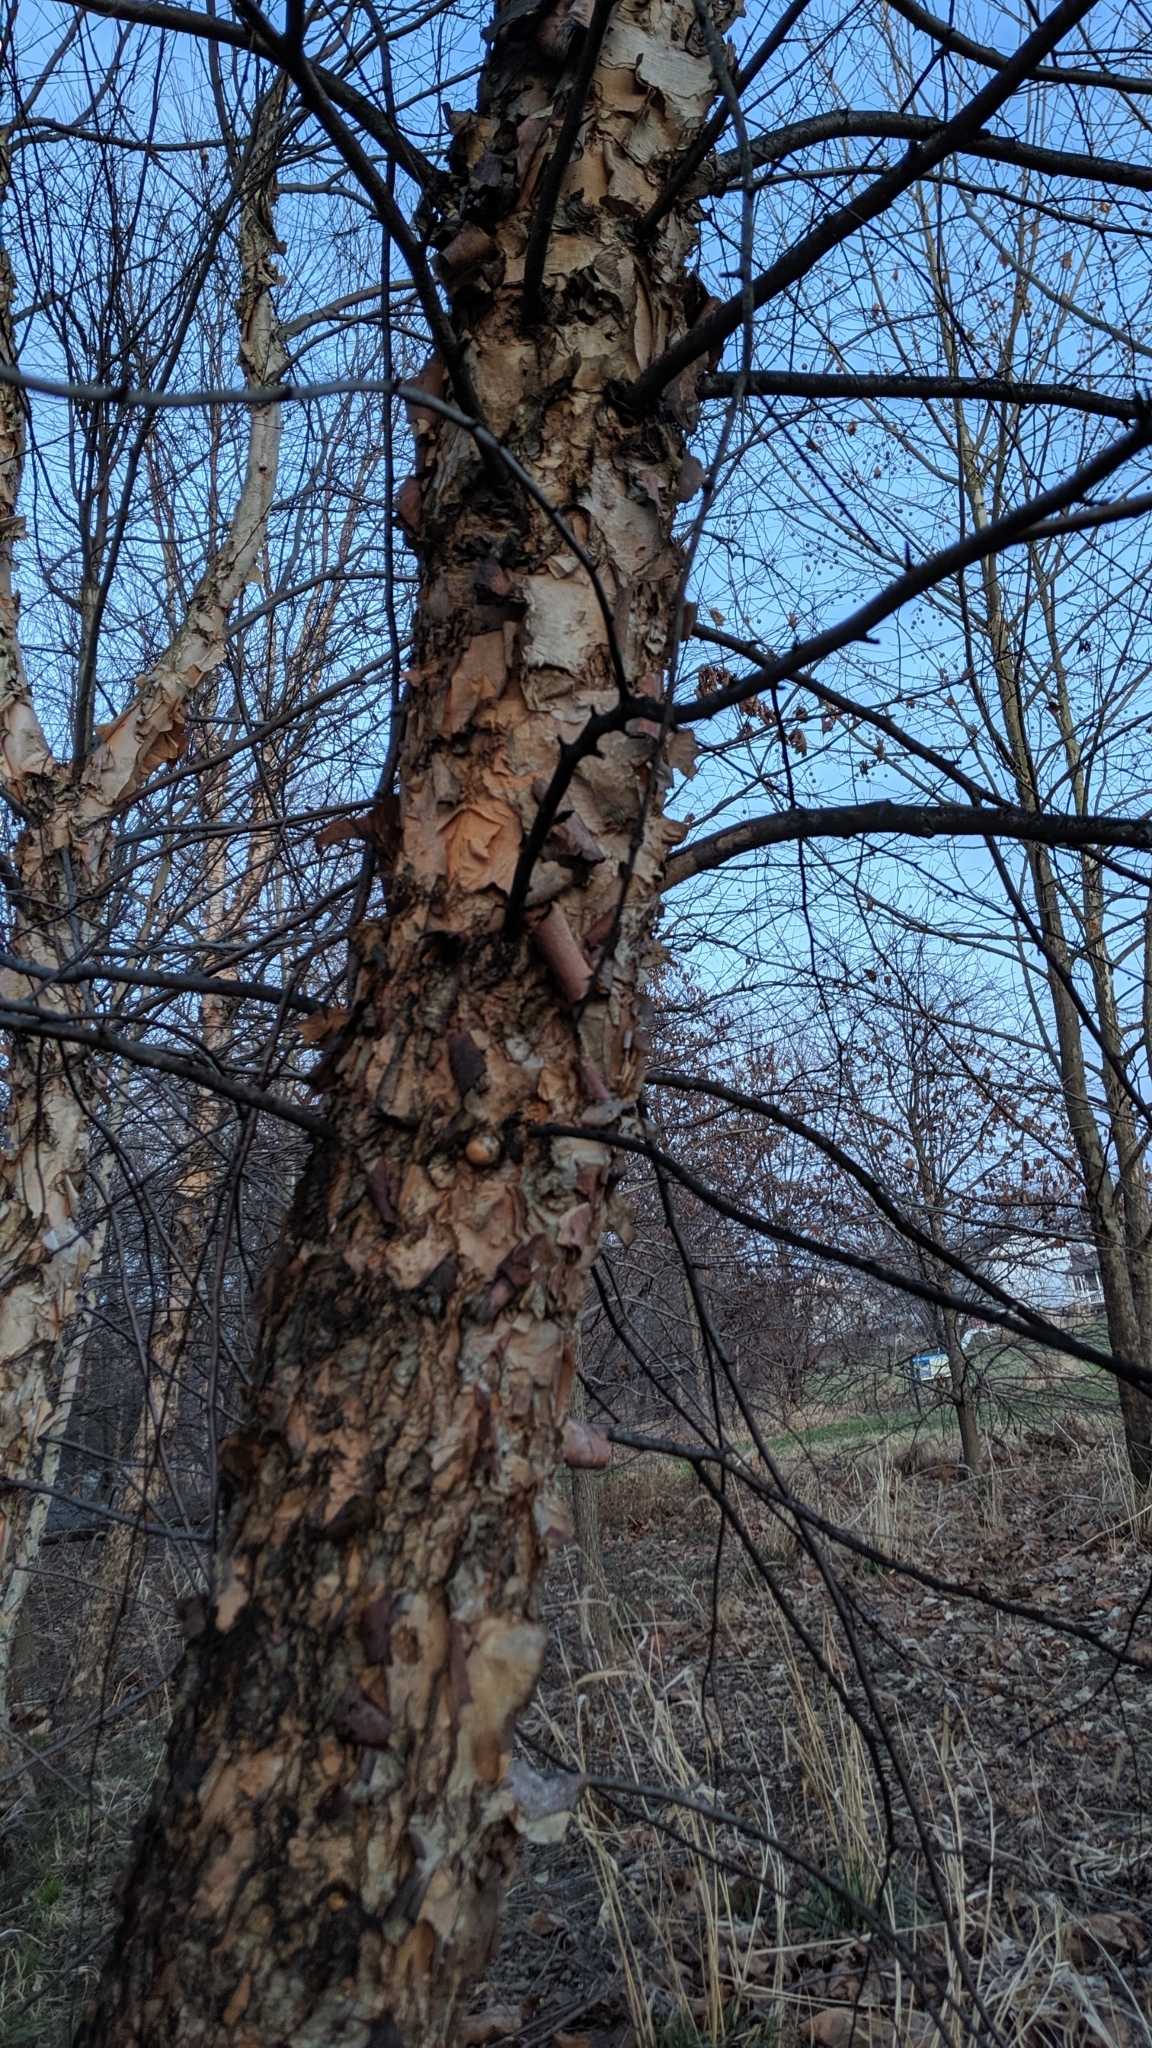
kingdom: Plantae
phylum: Tracheophyta
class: Magnoliopsida
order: Fagales
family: Betulaceae
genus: Betula
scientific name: Betula nigra
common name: Black birch
